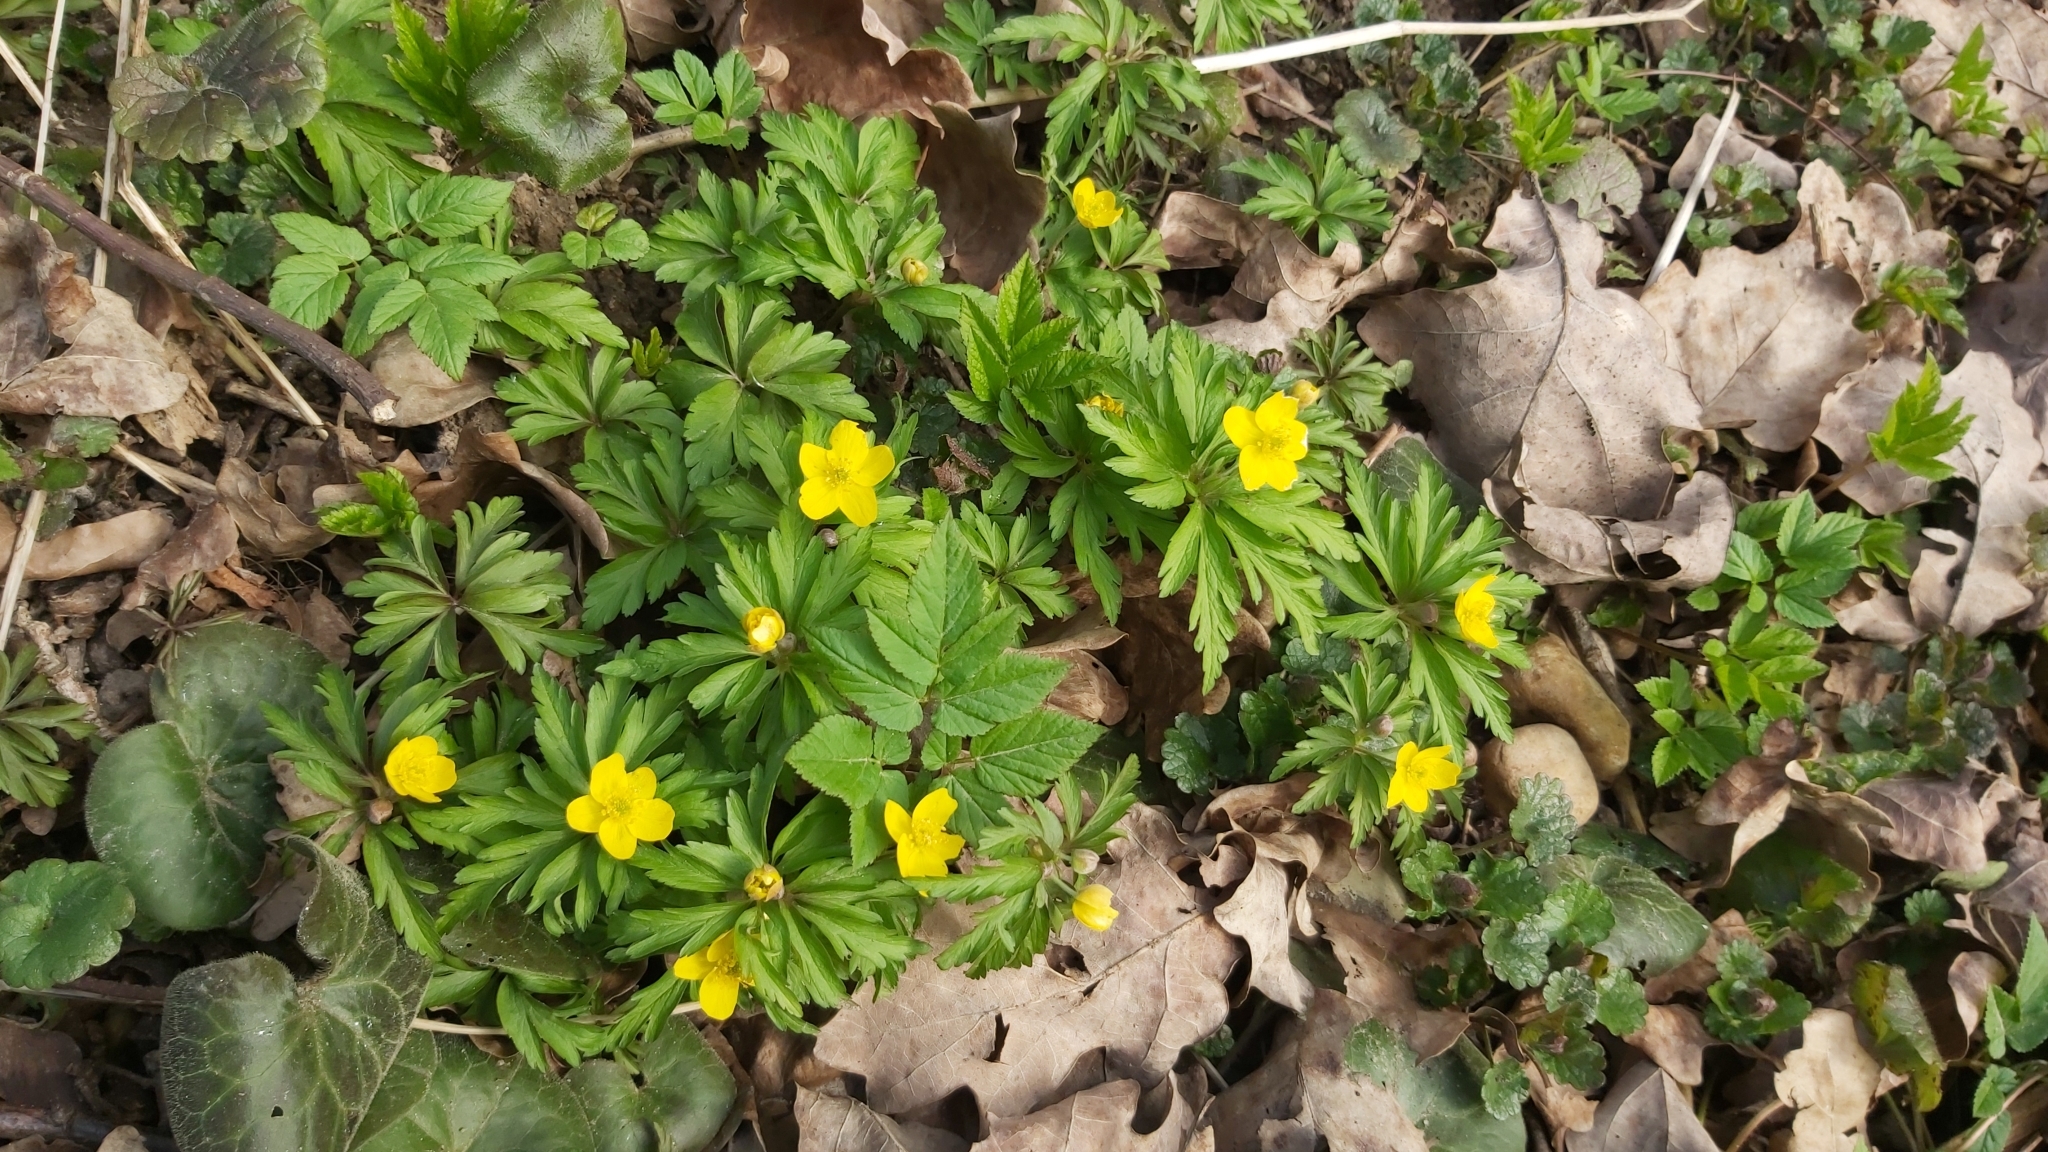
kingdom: Plantae
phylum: Tracheophyta
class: Magnoliopsida
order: Ranunculales
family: Ranunculaceae
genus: Anemone
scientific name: Anemone ranunculoides
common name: Yellow anemone
